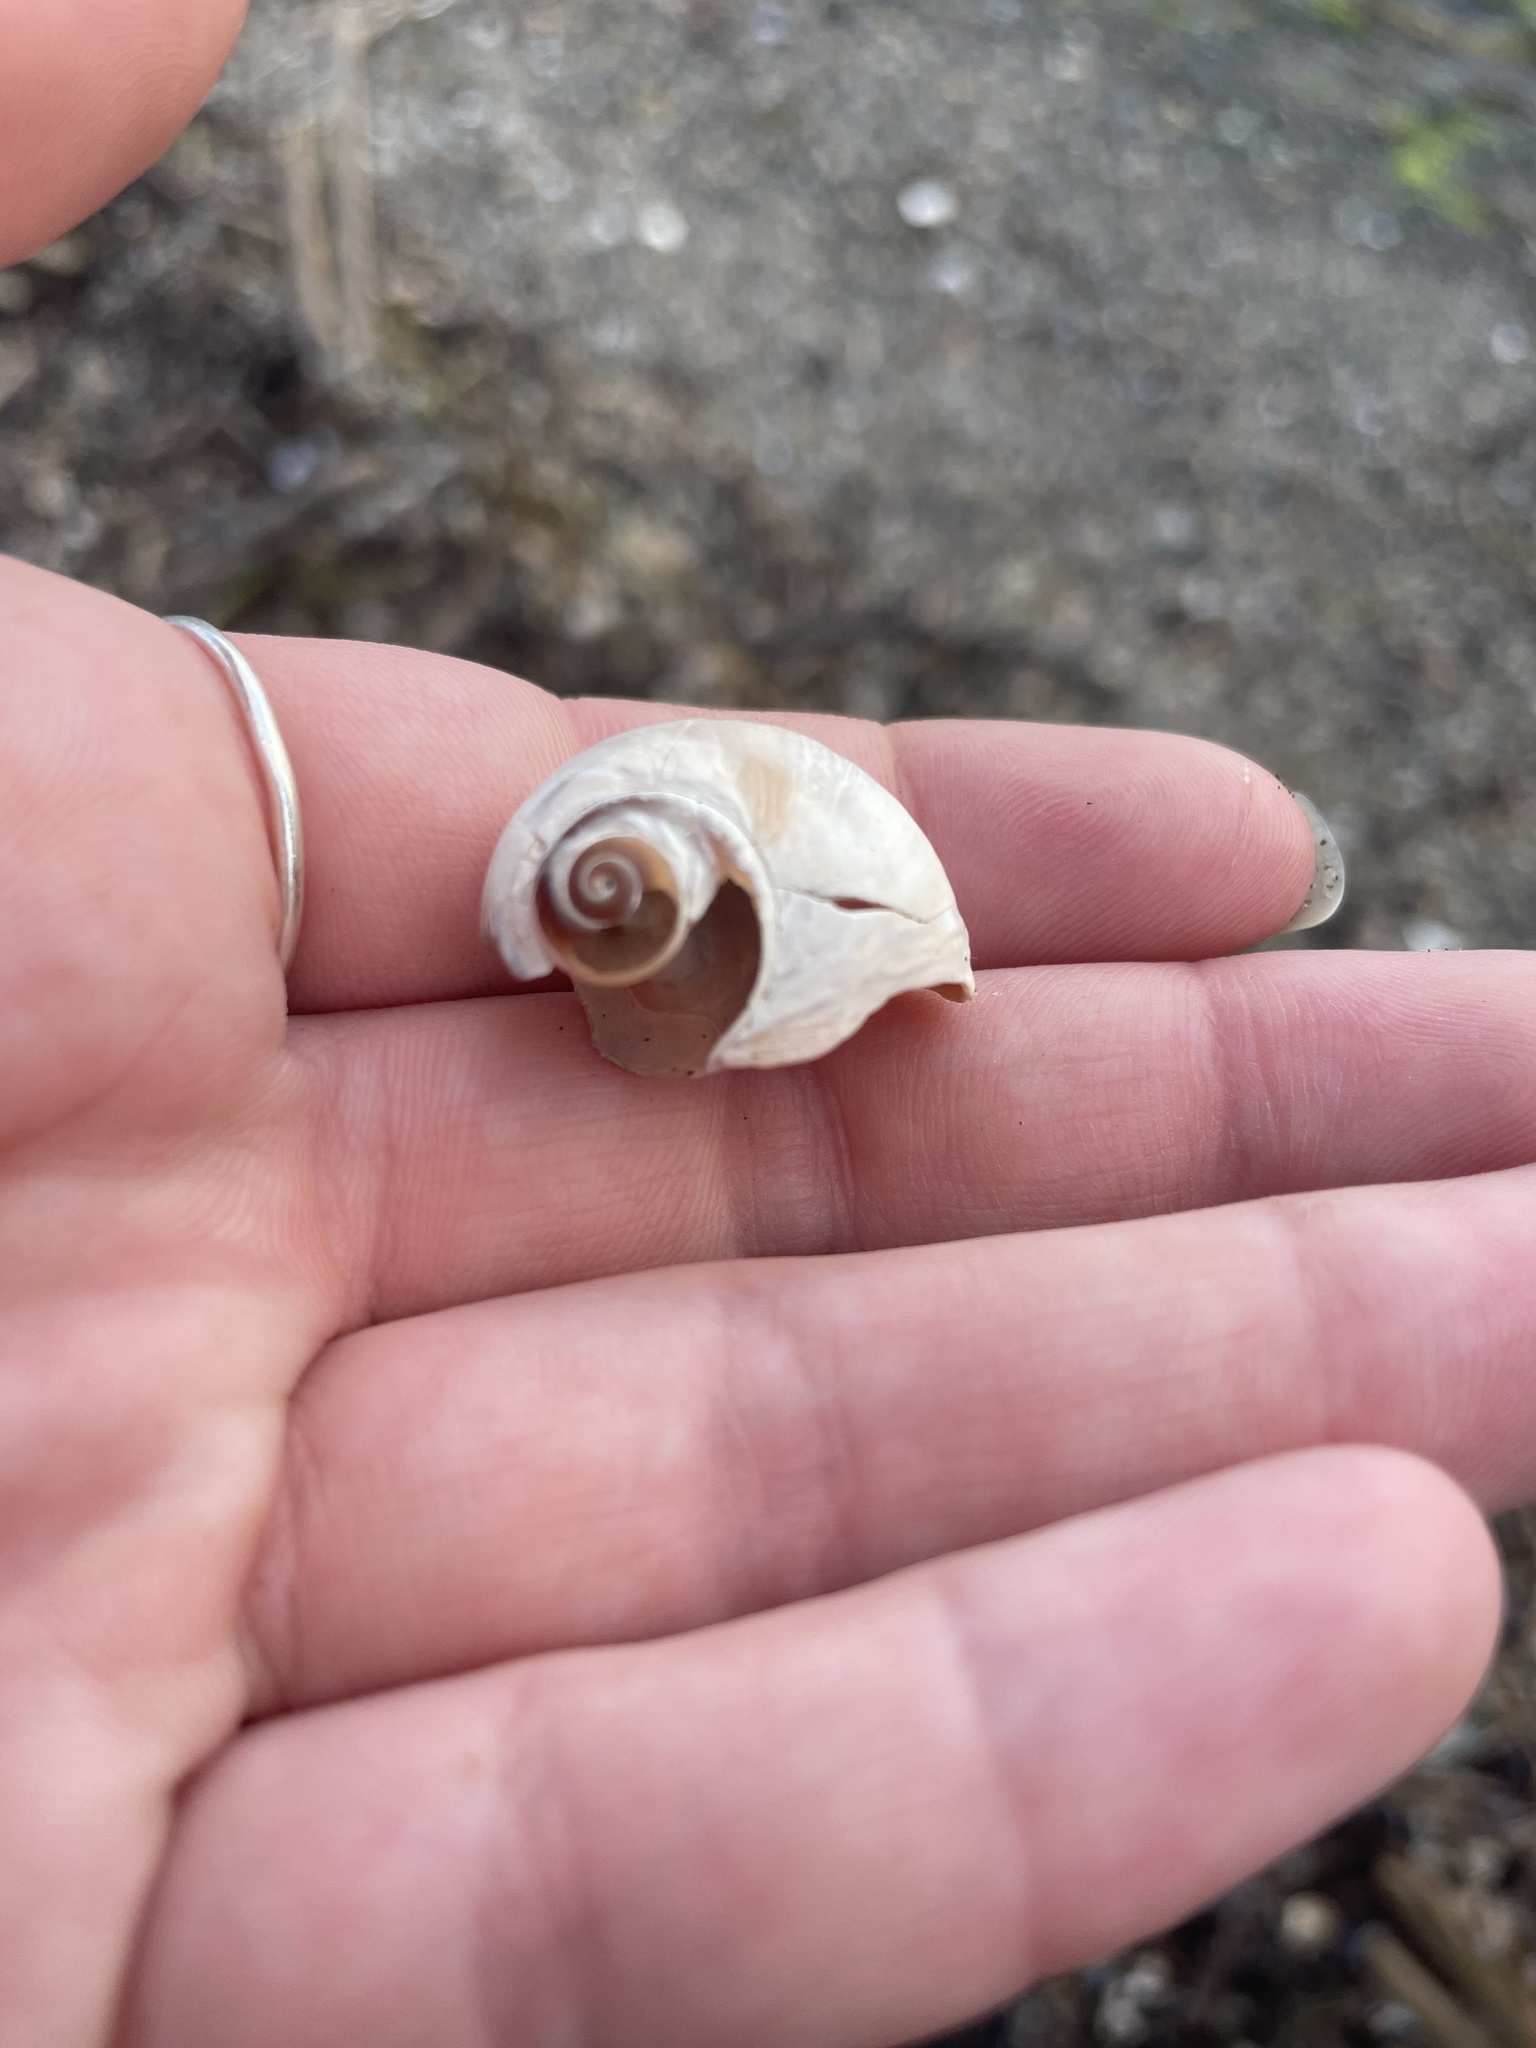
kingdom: Animalia
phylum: Mollusca
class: Gastropoda
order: Littorinimorpha
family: Naticidae
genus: Euspira
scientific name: Euspira heros
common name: Common northern moonsnail
